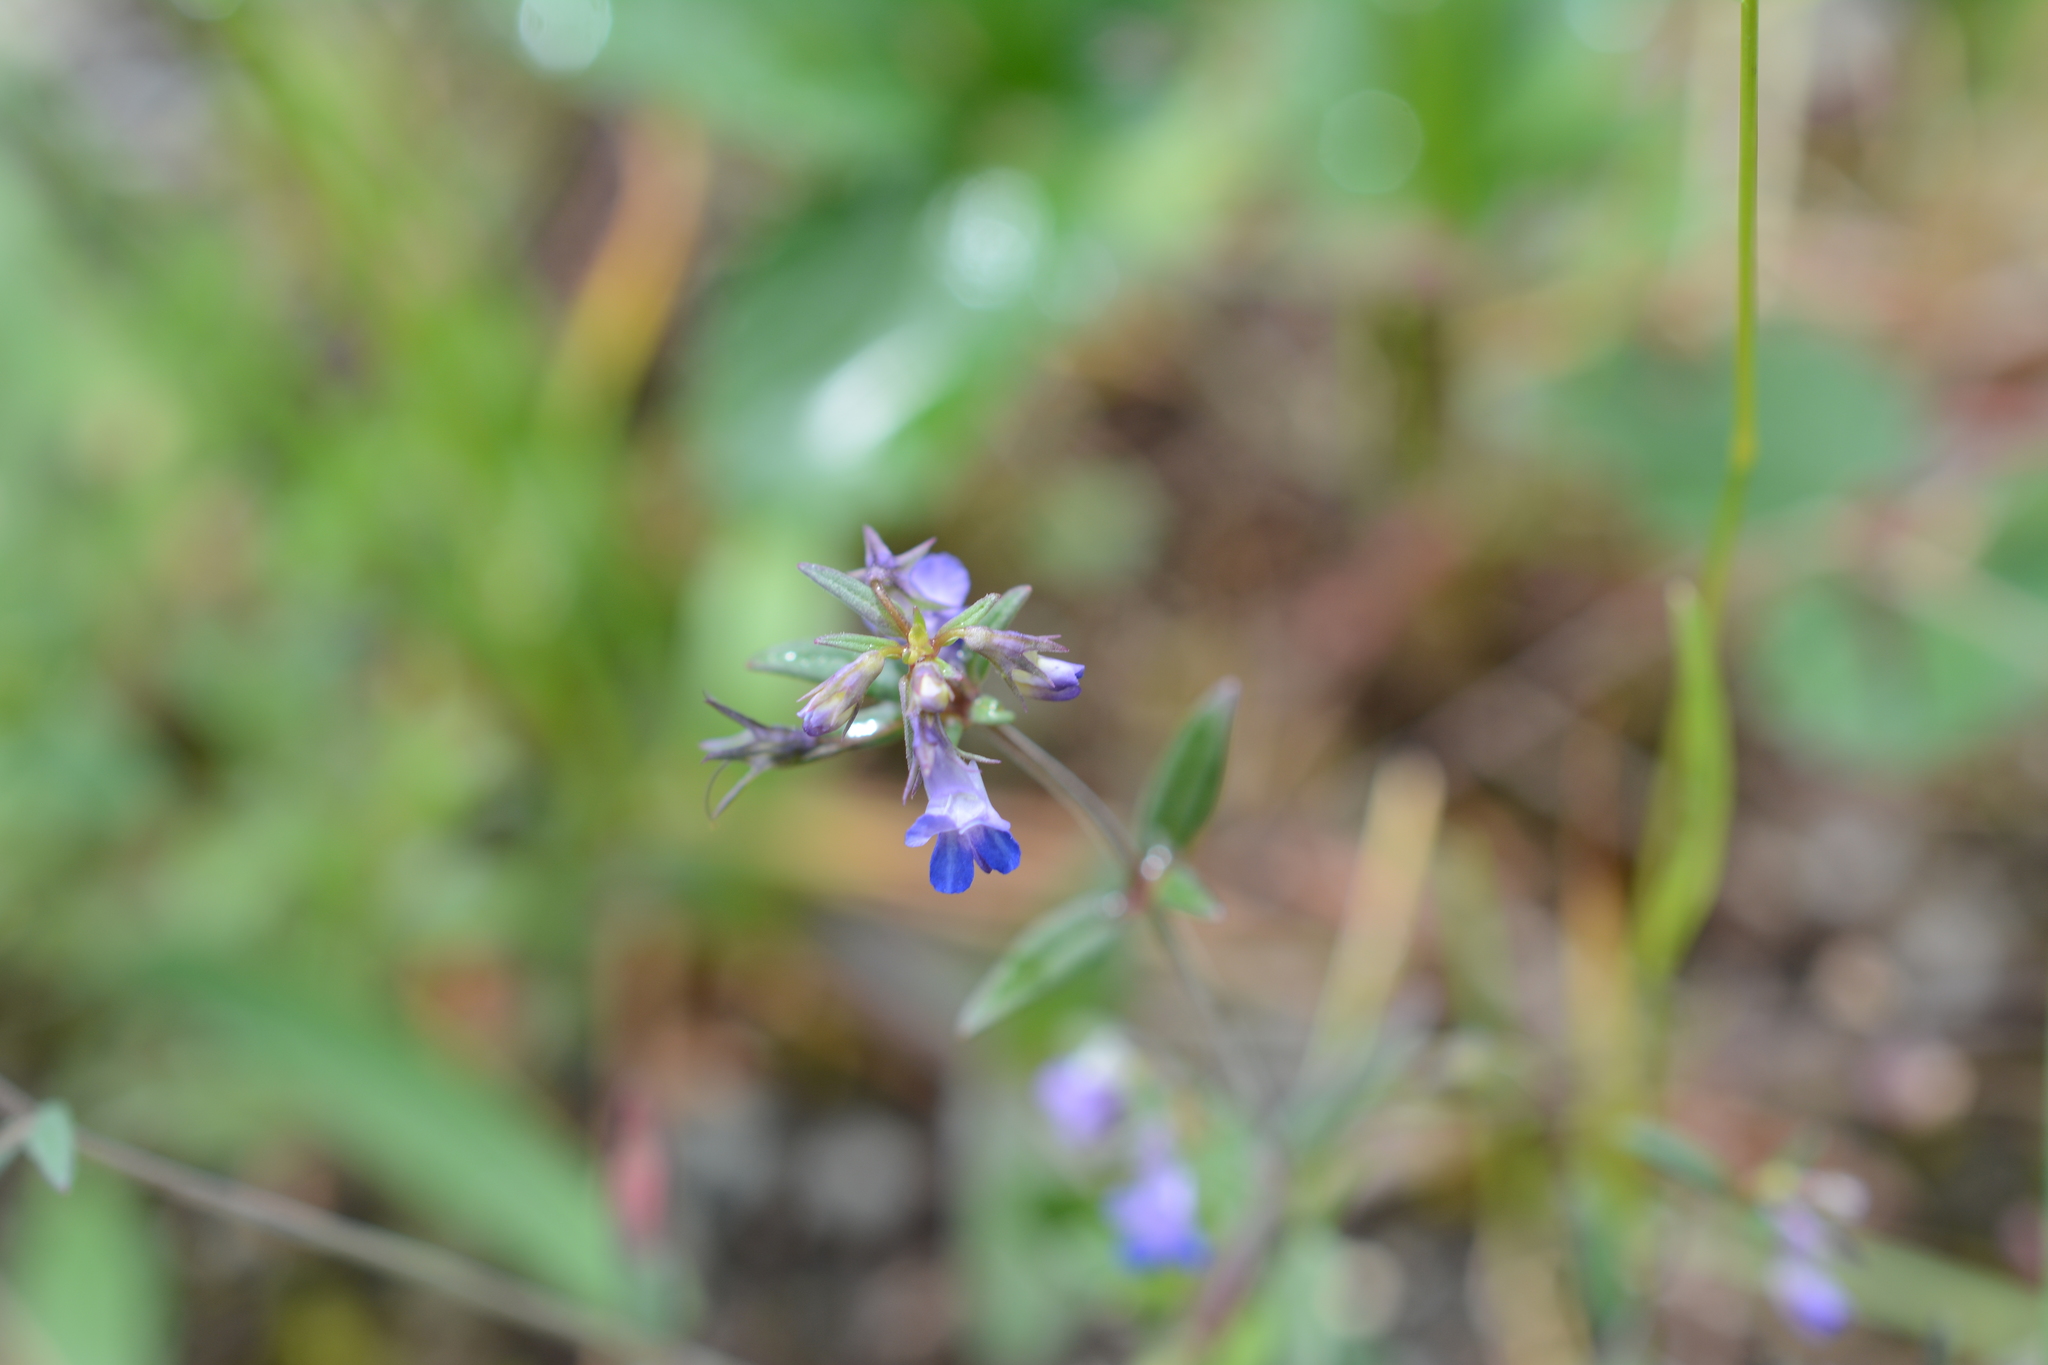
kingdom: Plantae
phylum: Tracheophyta
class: Magnoliopsida
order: Lamiales
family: Plantaginaceae
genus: Collinsia
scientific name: Collinsia parviflora
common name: Blue-lips
